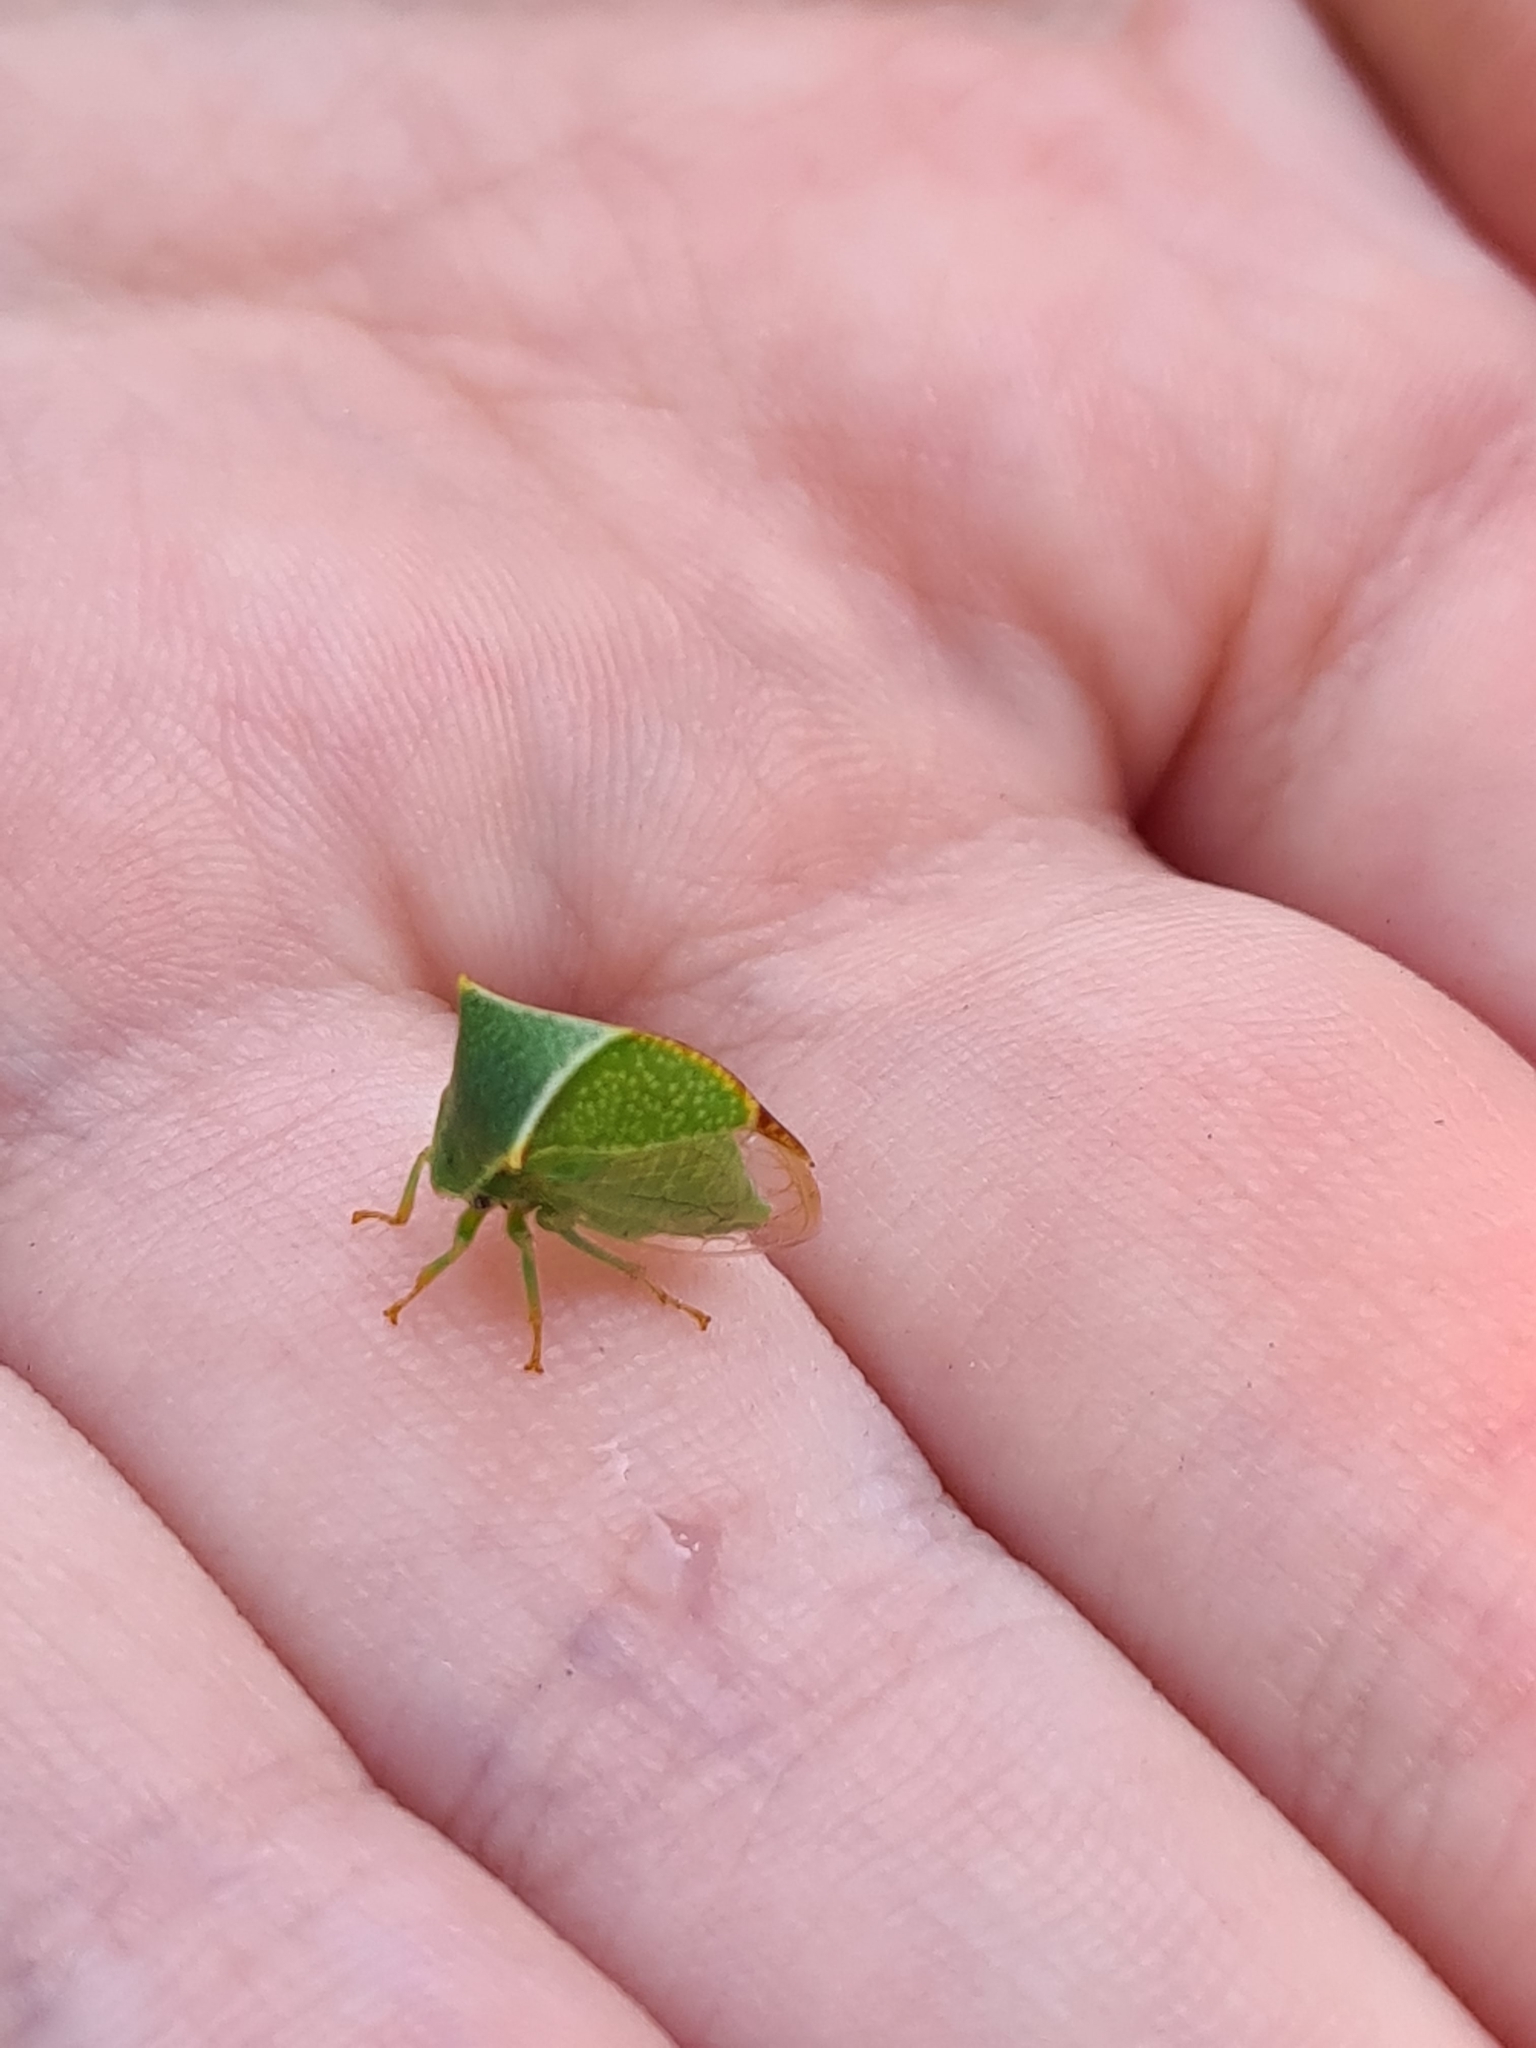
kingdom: Animalia
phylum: Arthropoda
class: Insecta
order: Hemiptera
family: Membracidae
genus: Stictocephala
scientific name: Stictocephala bisonia
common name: American buffalo treehopper
